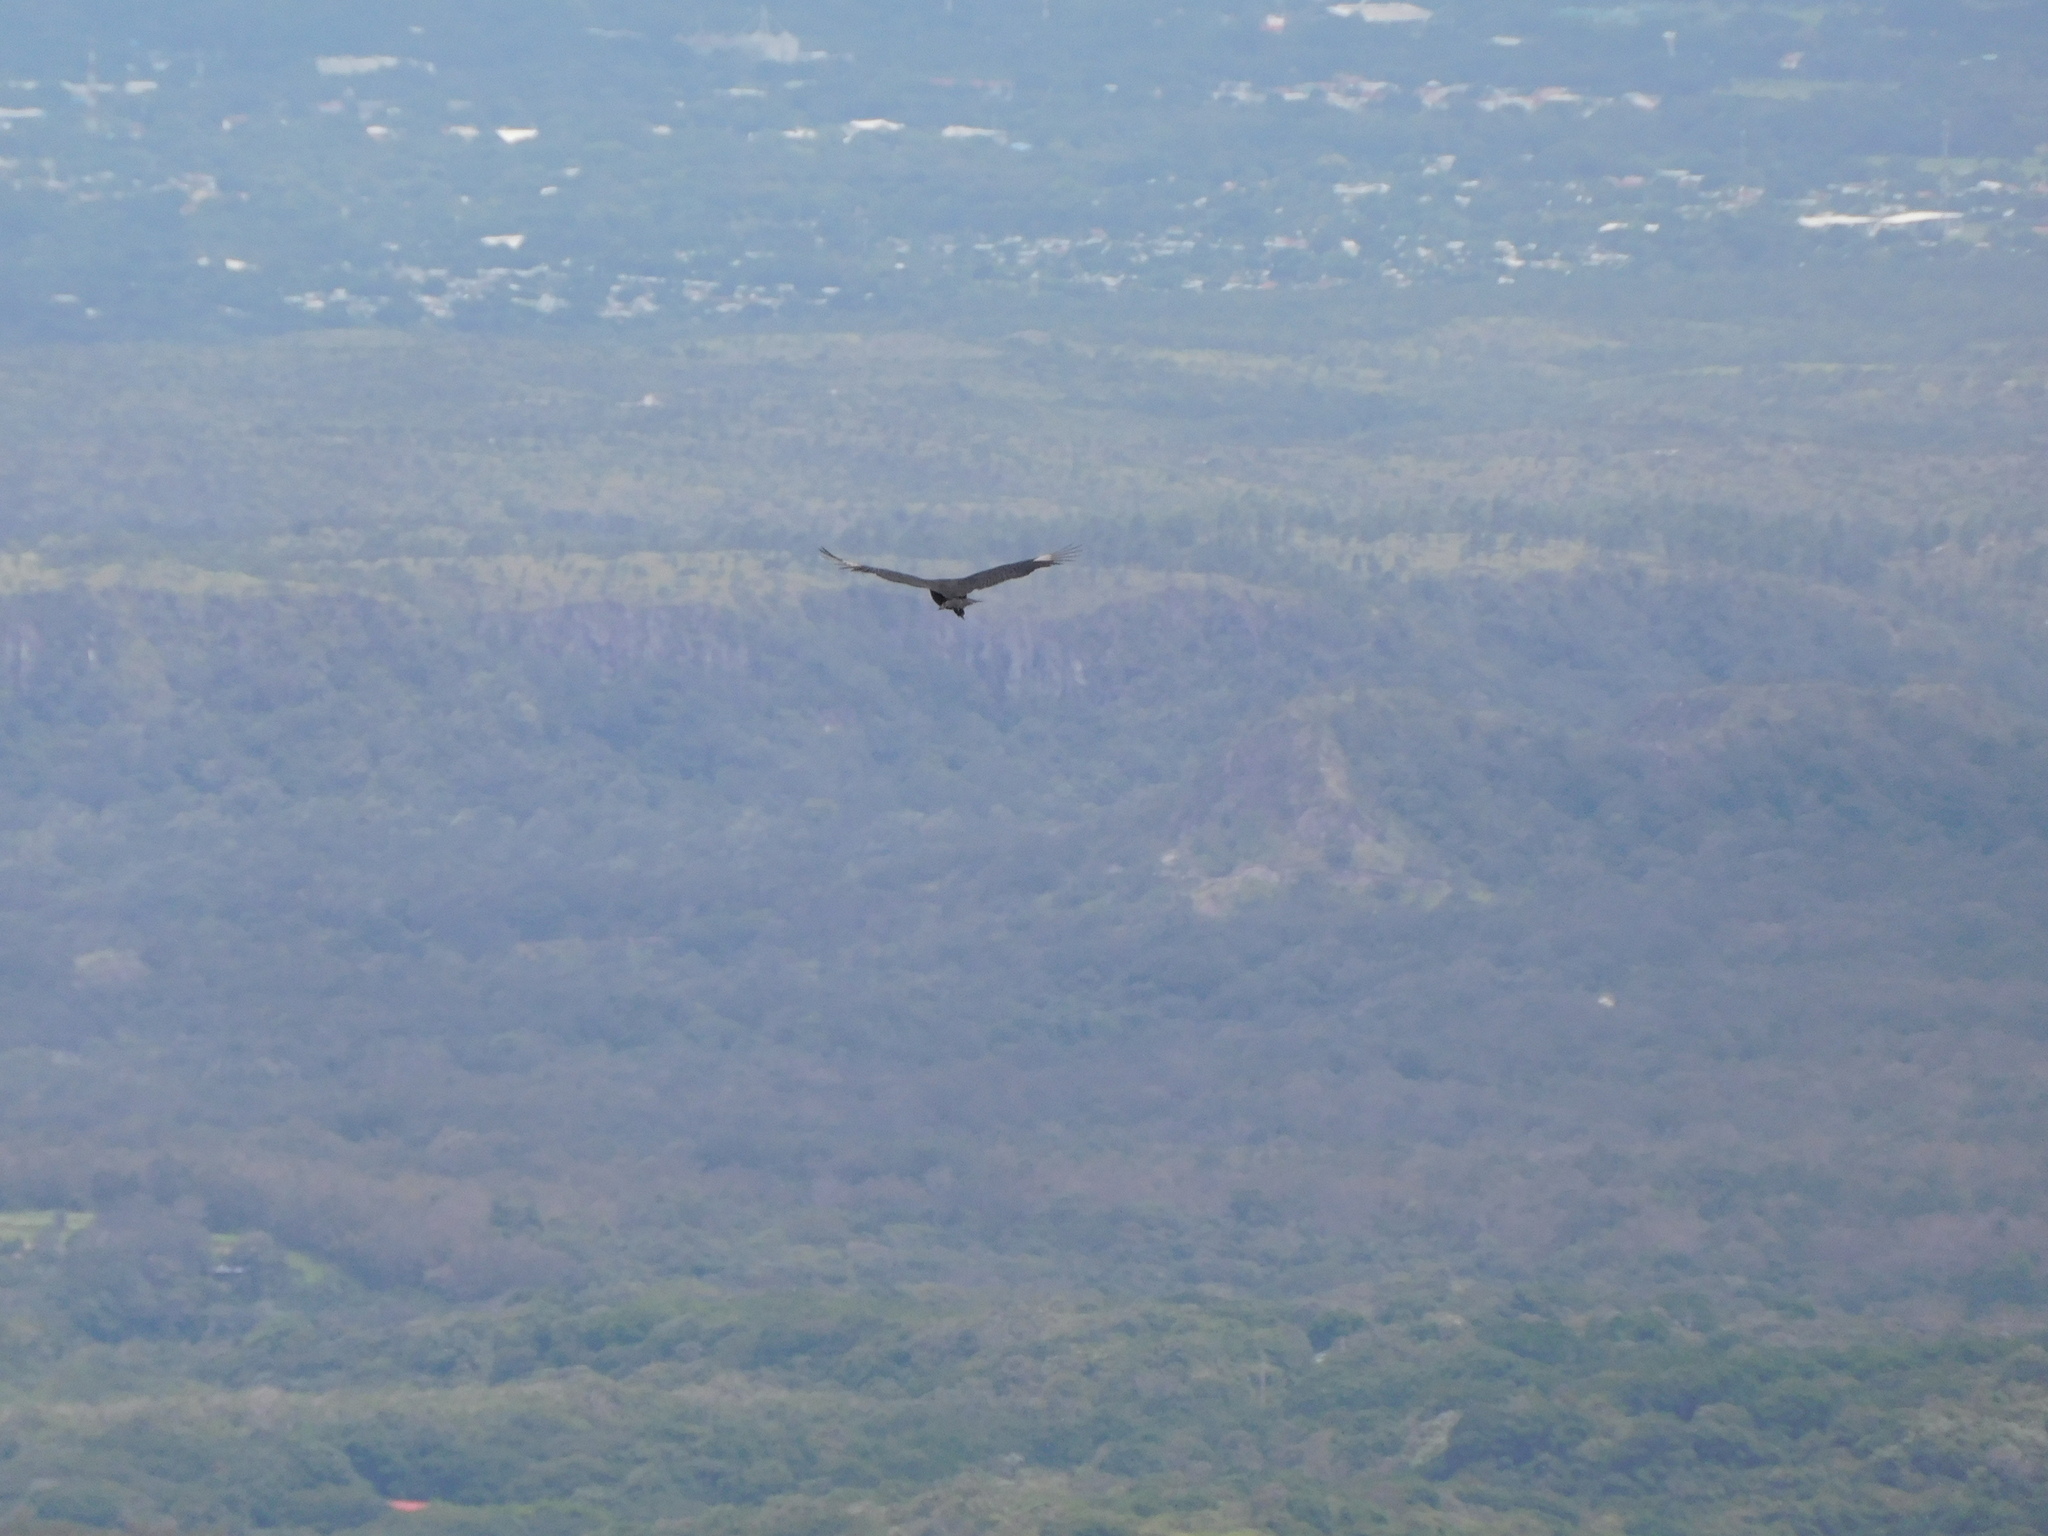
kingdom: Animalia
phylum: Chordata
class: Aves
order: Accipitriformes
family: Cathartidae
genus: Coragyps
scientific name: Coragyps atratus
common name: Black vulture
